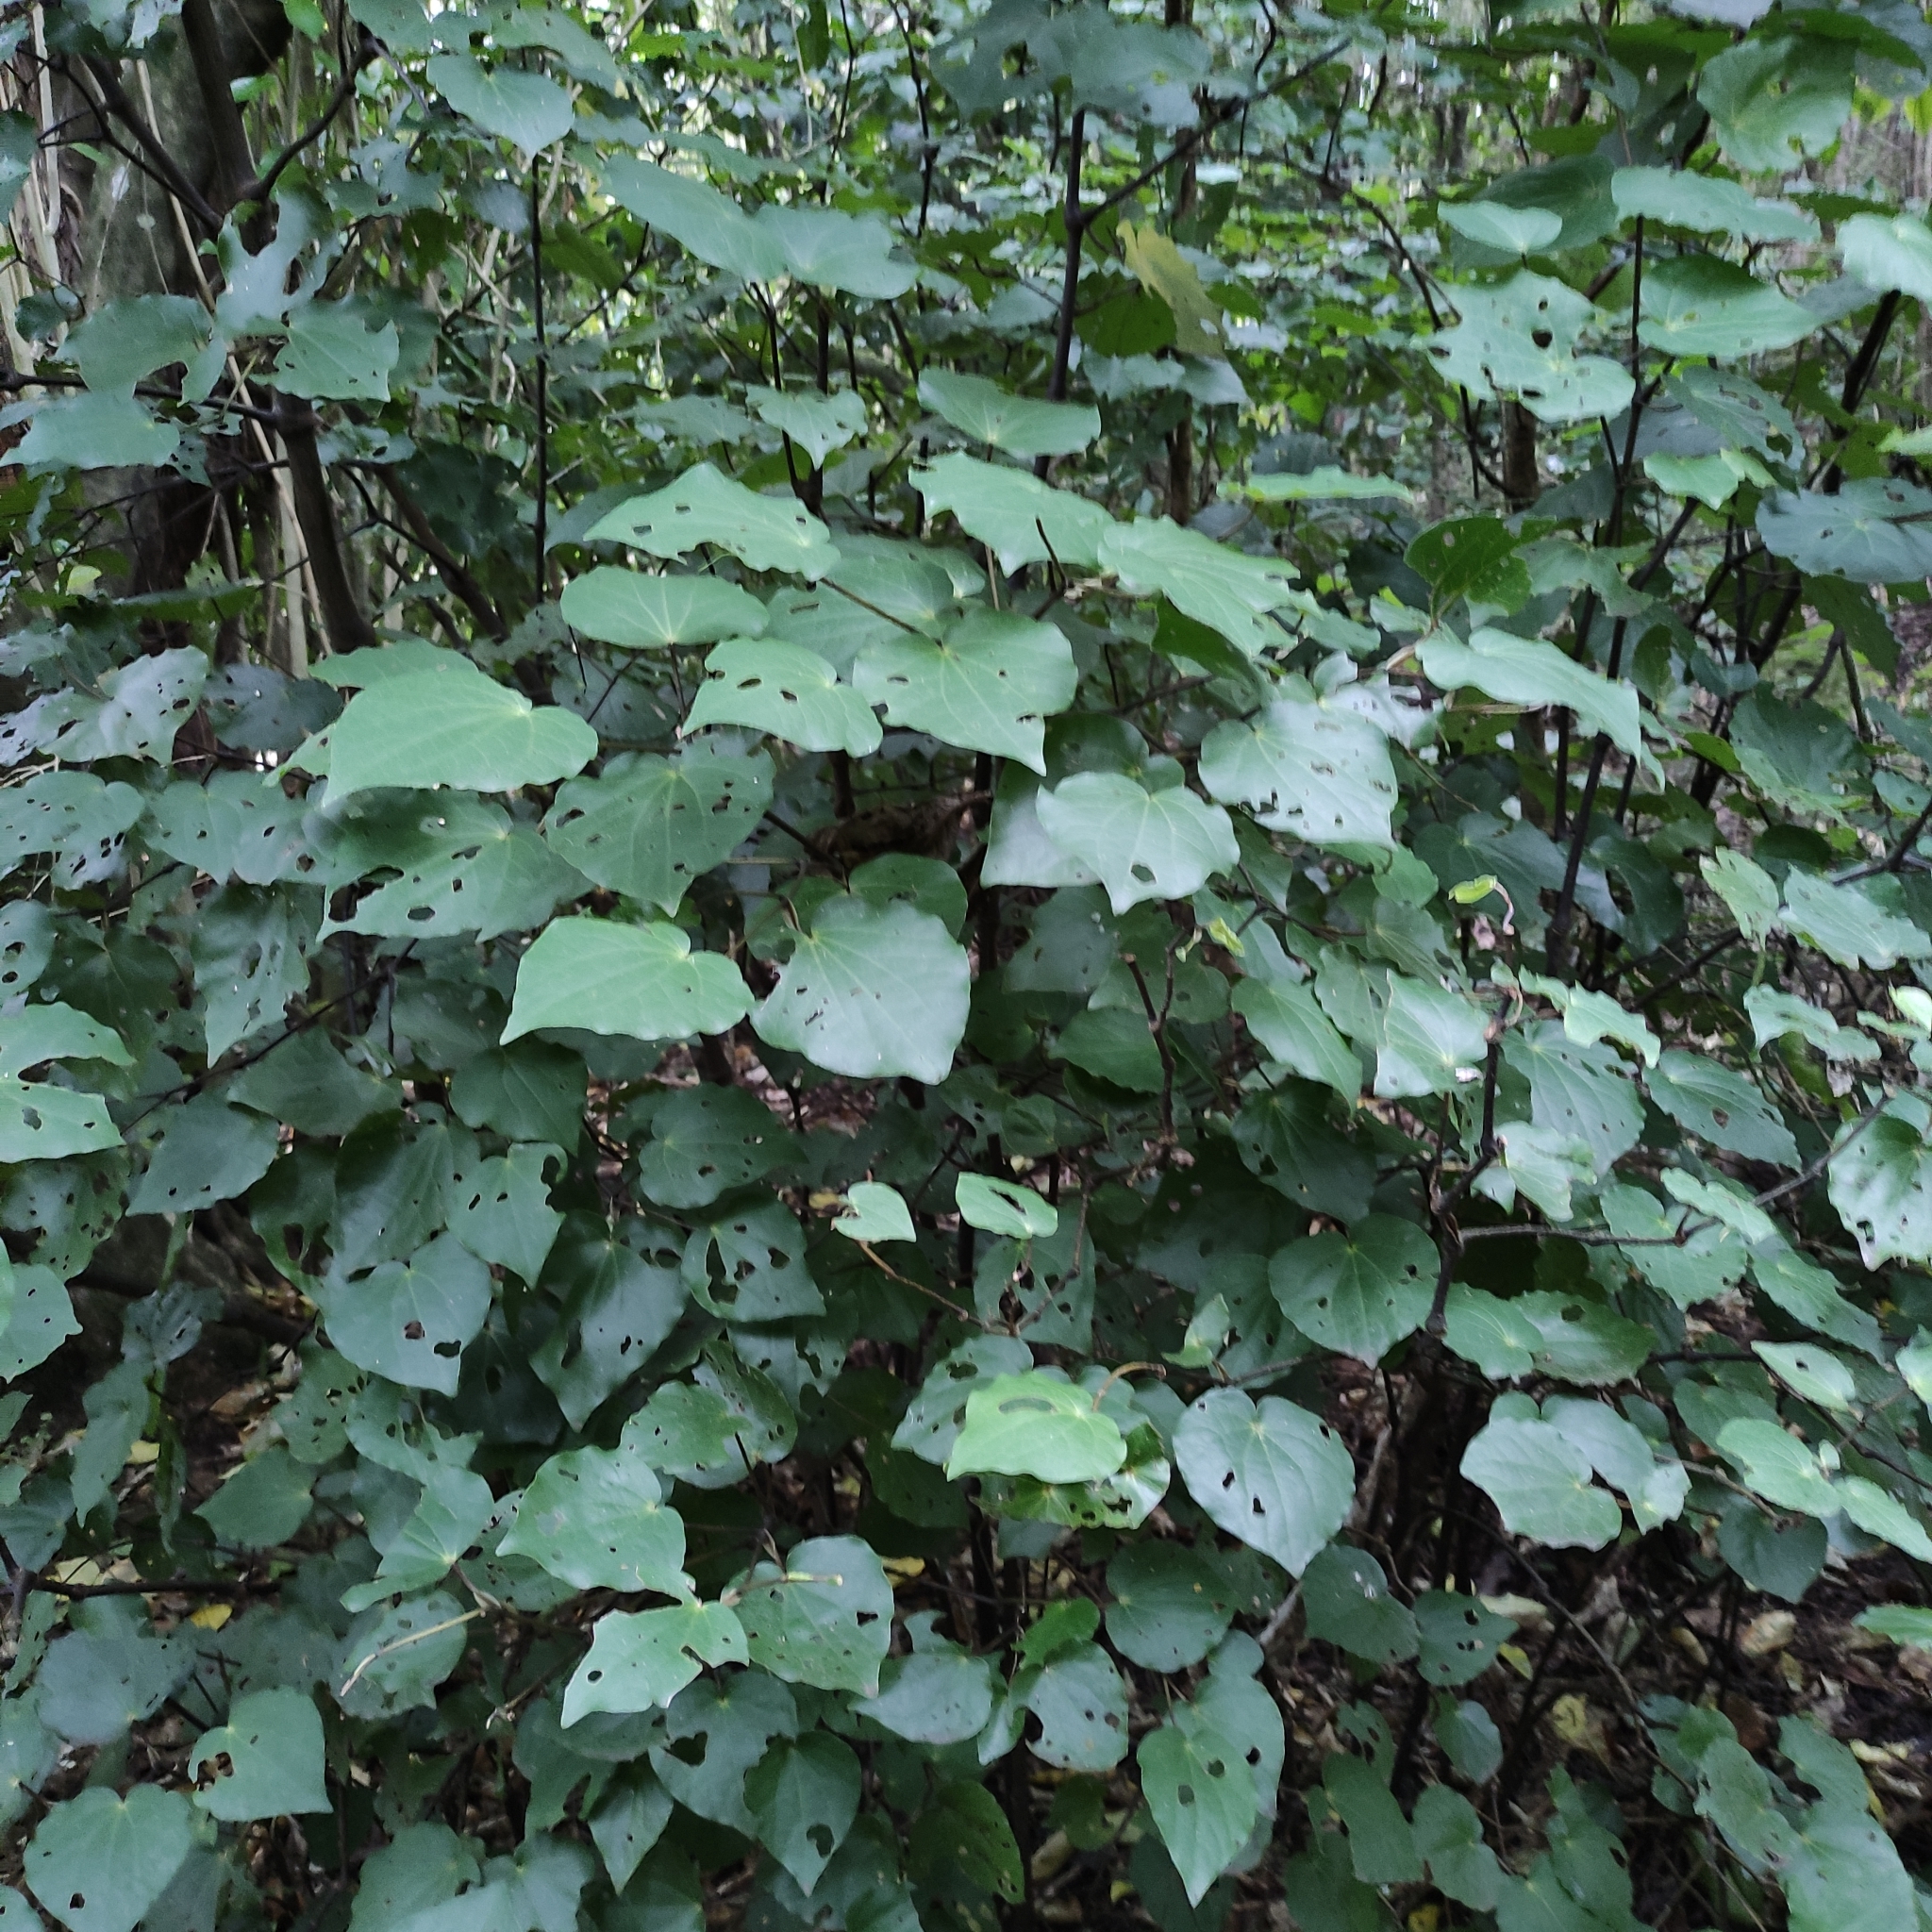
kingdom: Plantae
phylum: Tracheophyta
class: Magnoliopsida
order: Piperales
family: Piperaceae
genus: Macropiper
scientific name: Macropiper excelsum
